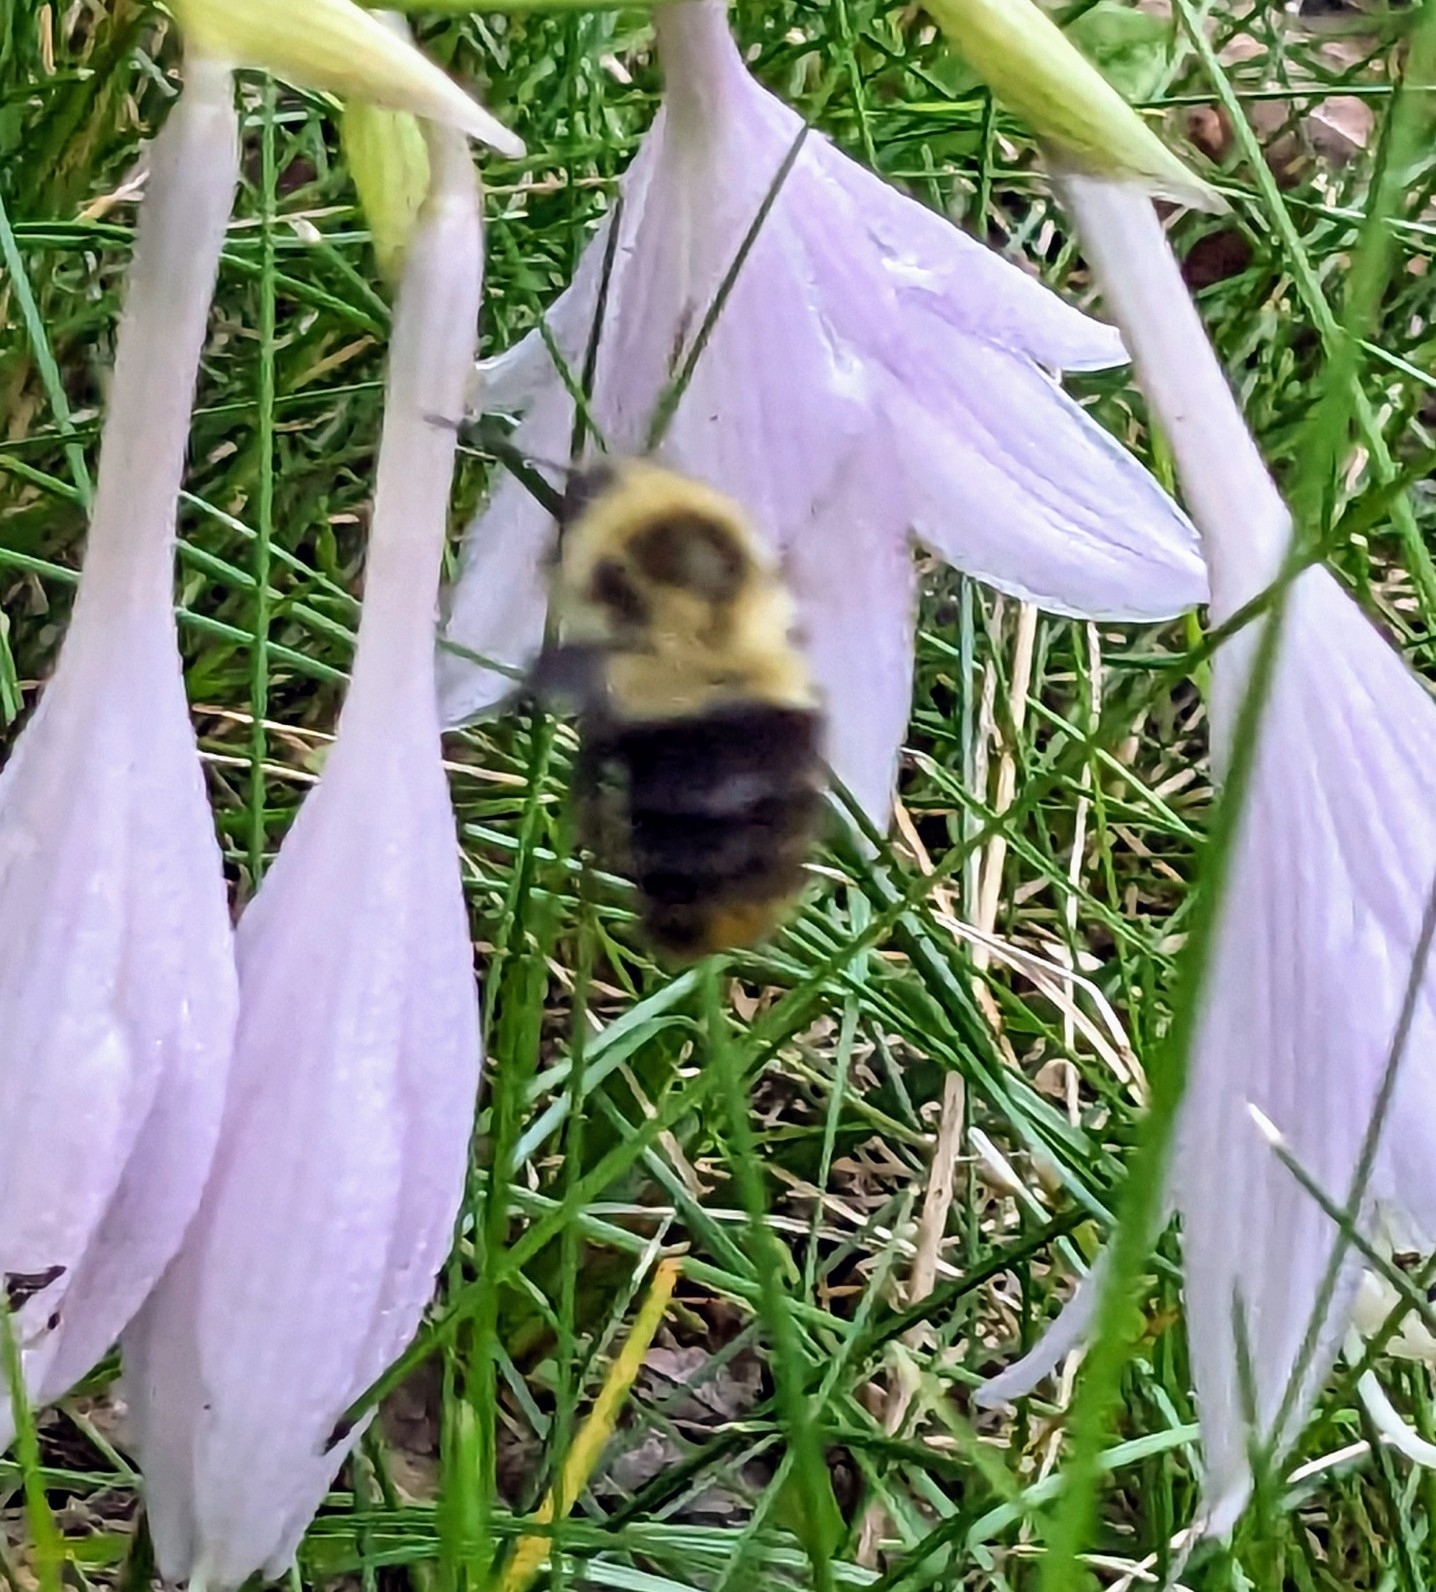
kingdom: Animalia
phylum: Arthropoda
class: Insecta
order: Hymenoptera
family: Apidae
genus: Bombus
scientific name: Bombus impatiens
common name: Common eastern bumble bee
